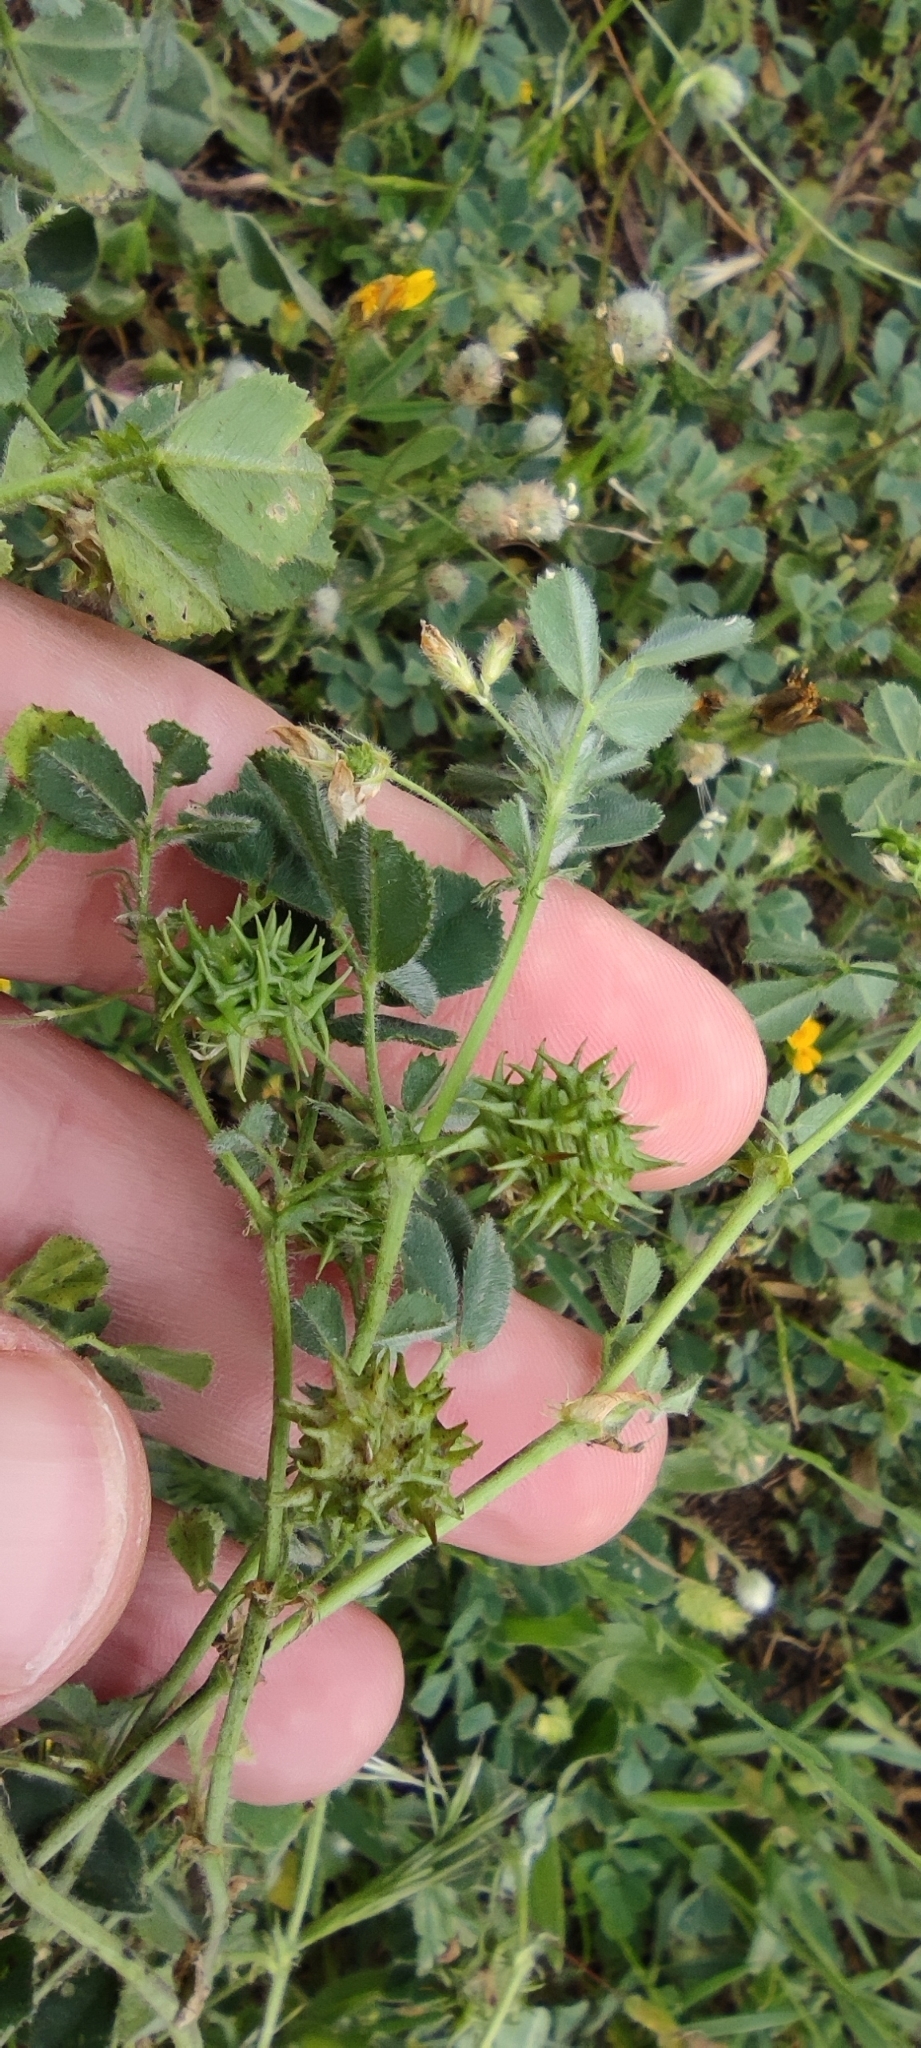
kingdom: Plantae
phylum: Tracheophyta
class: Magnoliopsida
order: Fabales
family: Fabaceae
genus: Medicago
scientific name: Medicago truncatula
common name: Strong-spined medick
